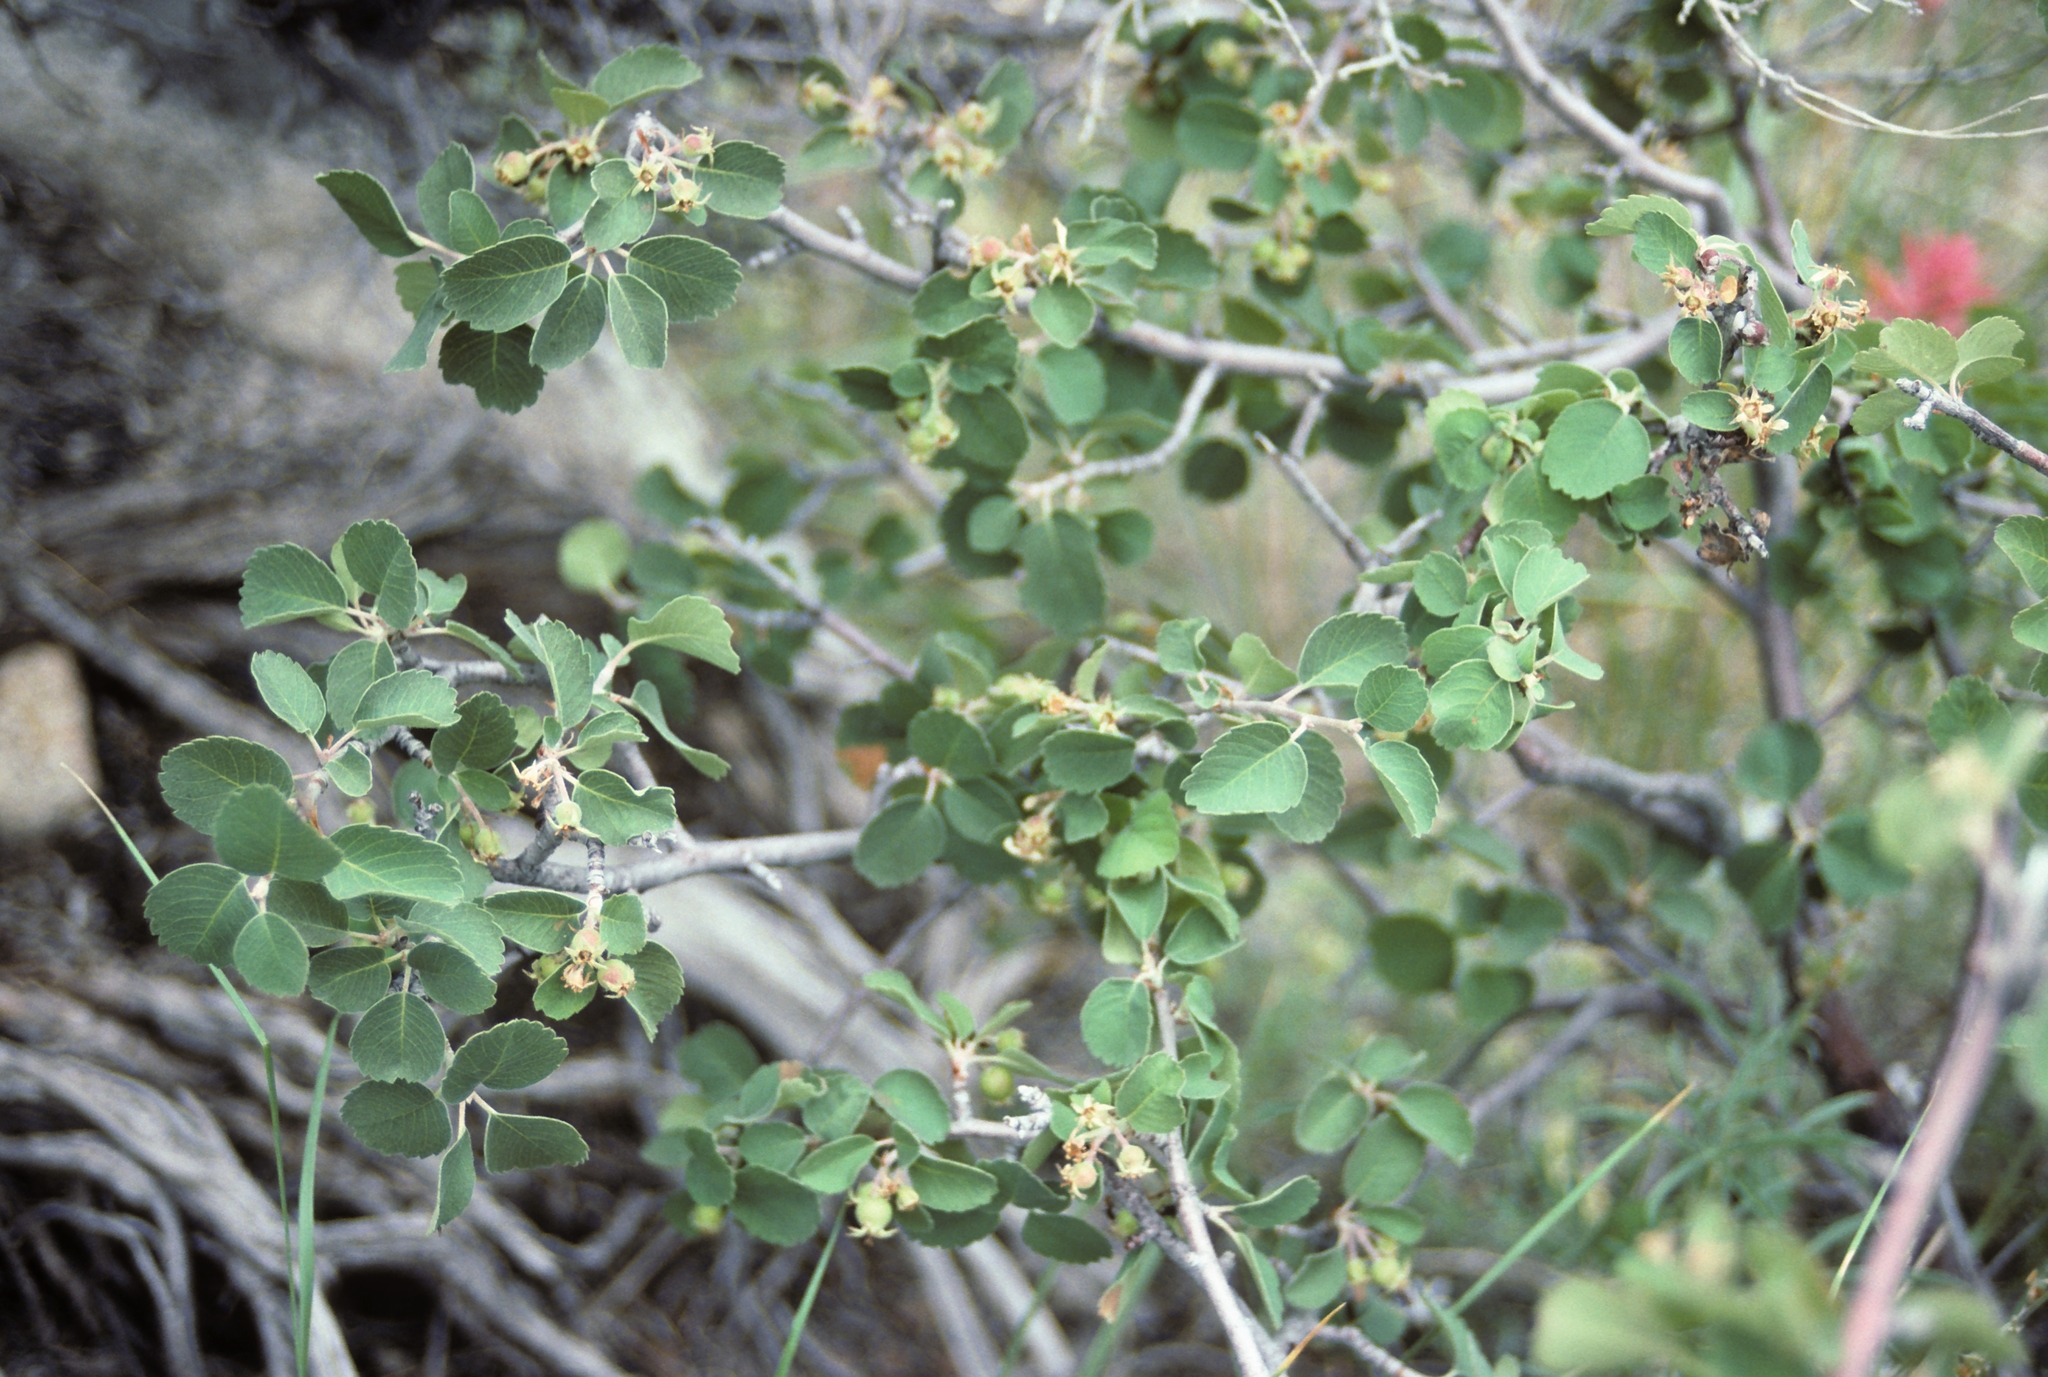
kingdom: Plantae
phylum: Tracheophyta
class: Magnoliopsida
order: Rosales
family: Rosaceae
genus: Amelanchier
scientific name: Amelanchier utahensis
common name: Utah serviceberry
